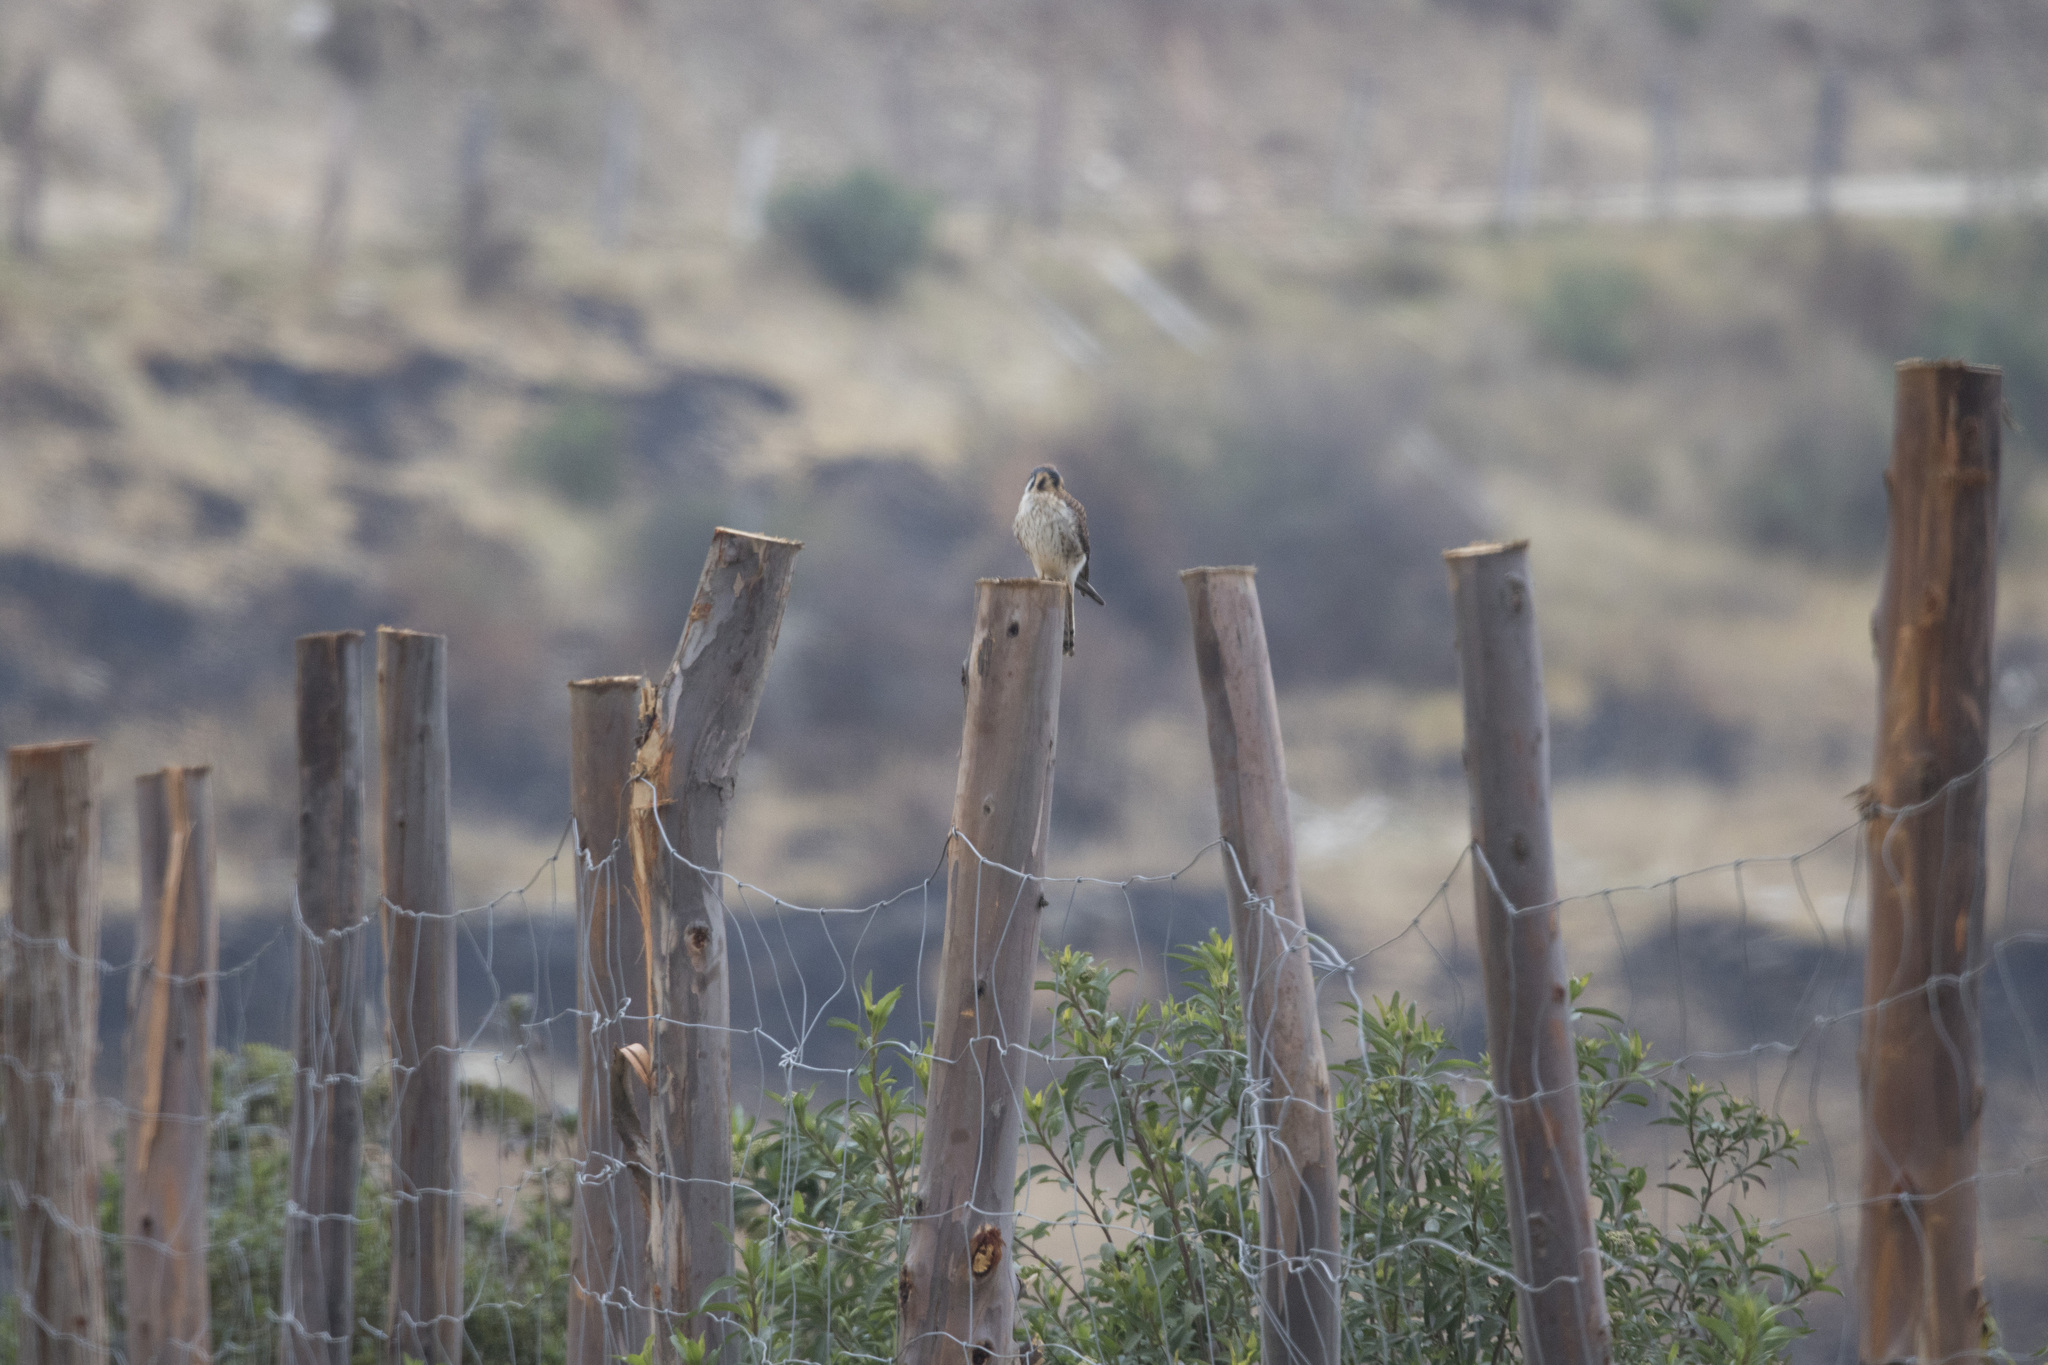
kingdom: Animalia
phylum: Chordata
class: Aves
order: Falconiformes
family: Falconidae
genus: Falco
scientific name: Falco sparverius
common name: American kestrel
